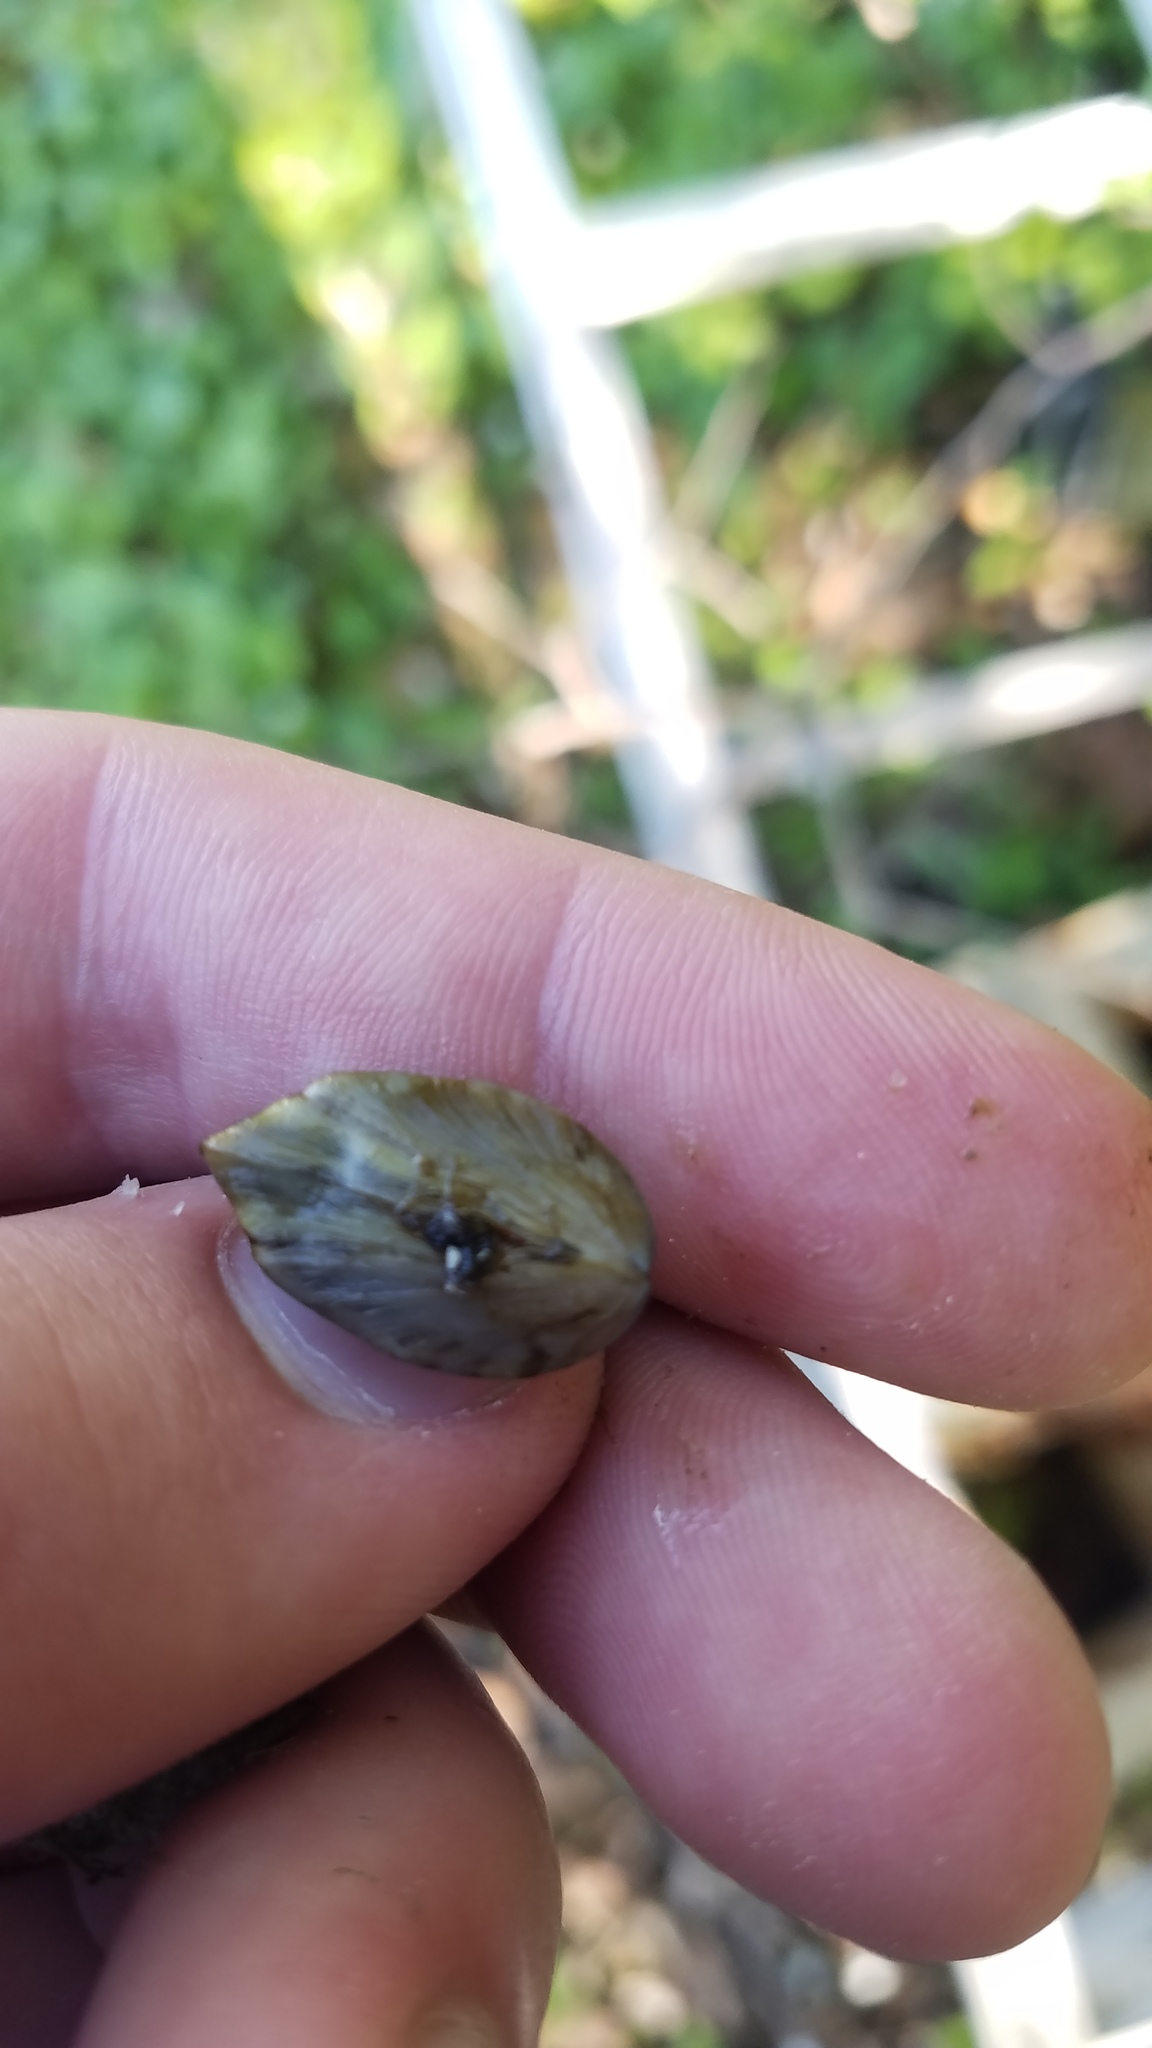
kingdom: Animalia
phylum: Mollusca
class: Bivalvia
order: Myida
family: Dreissenidae
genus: Dreissena
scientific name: Dreissena polymorpha
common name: Zebra mussel
